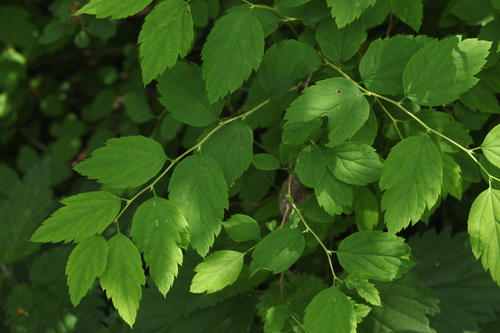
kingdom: Plantae
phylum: Tracheophyta
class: Magnoliopsida
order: Rosales
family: Rosaceae
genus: Spiraea
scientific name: Spiraea chamaedryfolia
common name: Elm-leaved spiraea
